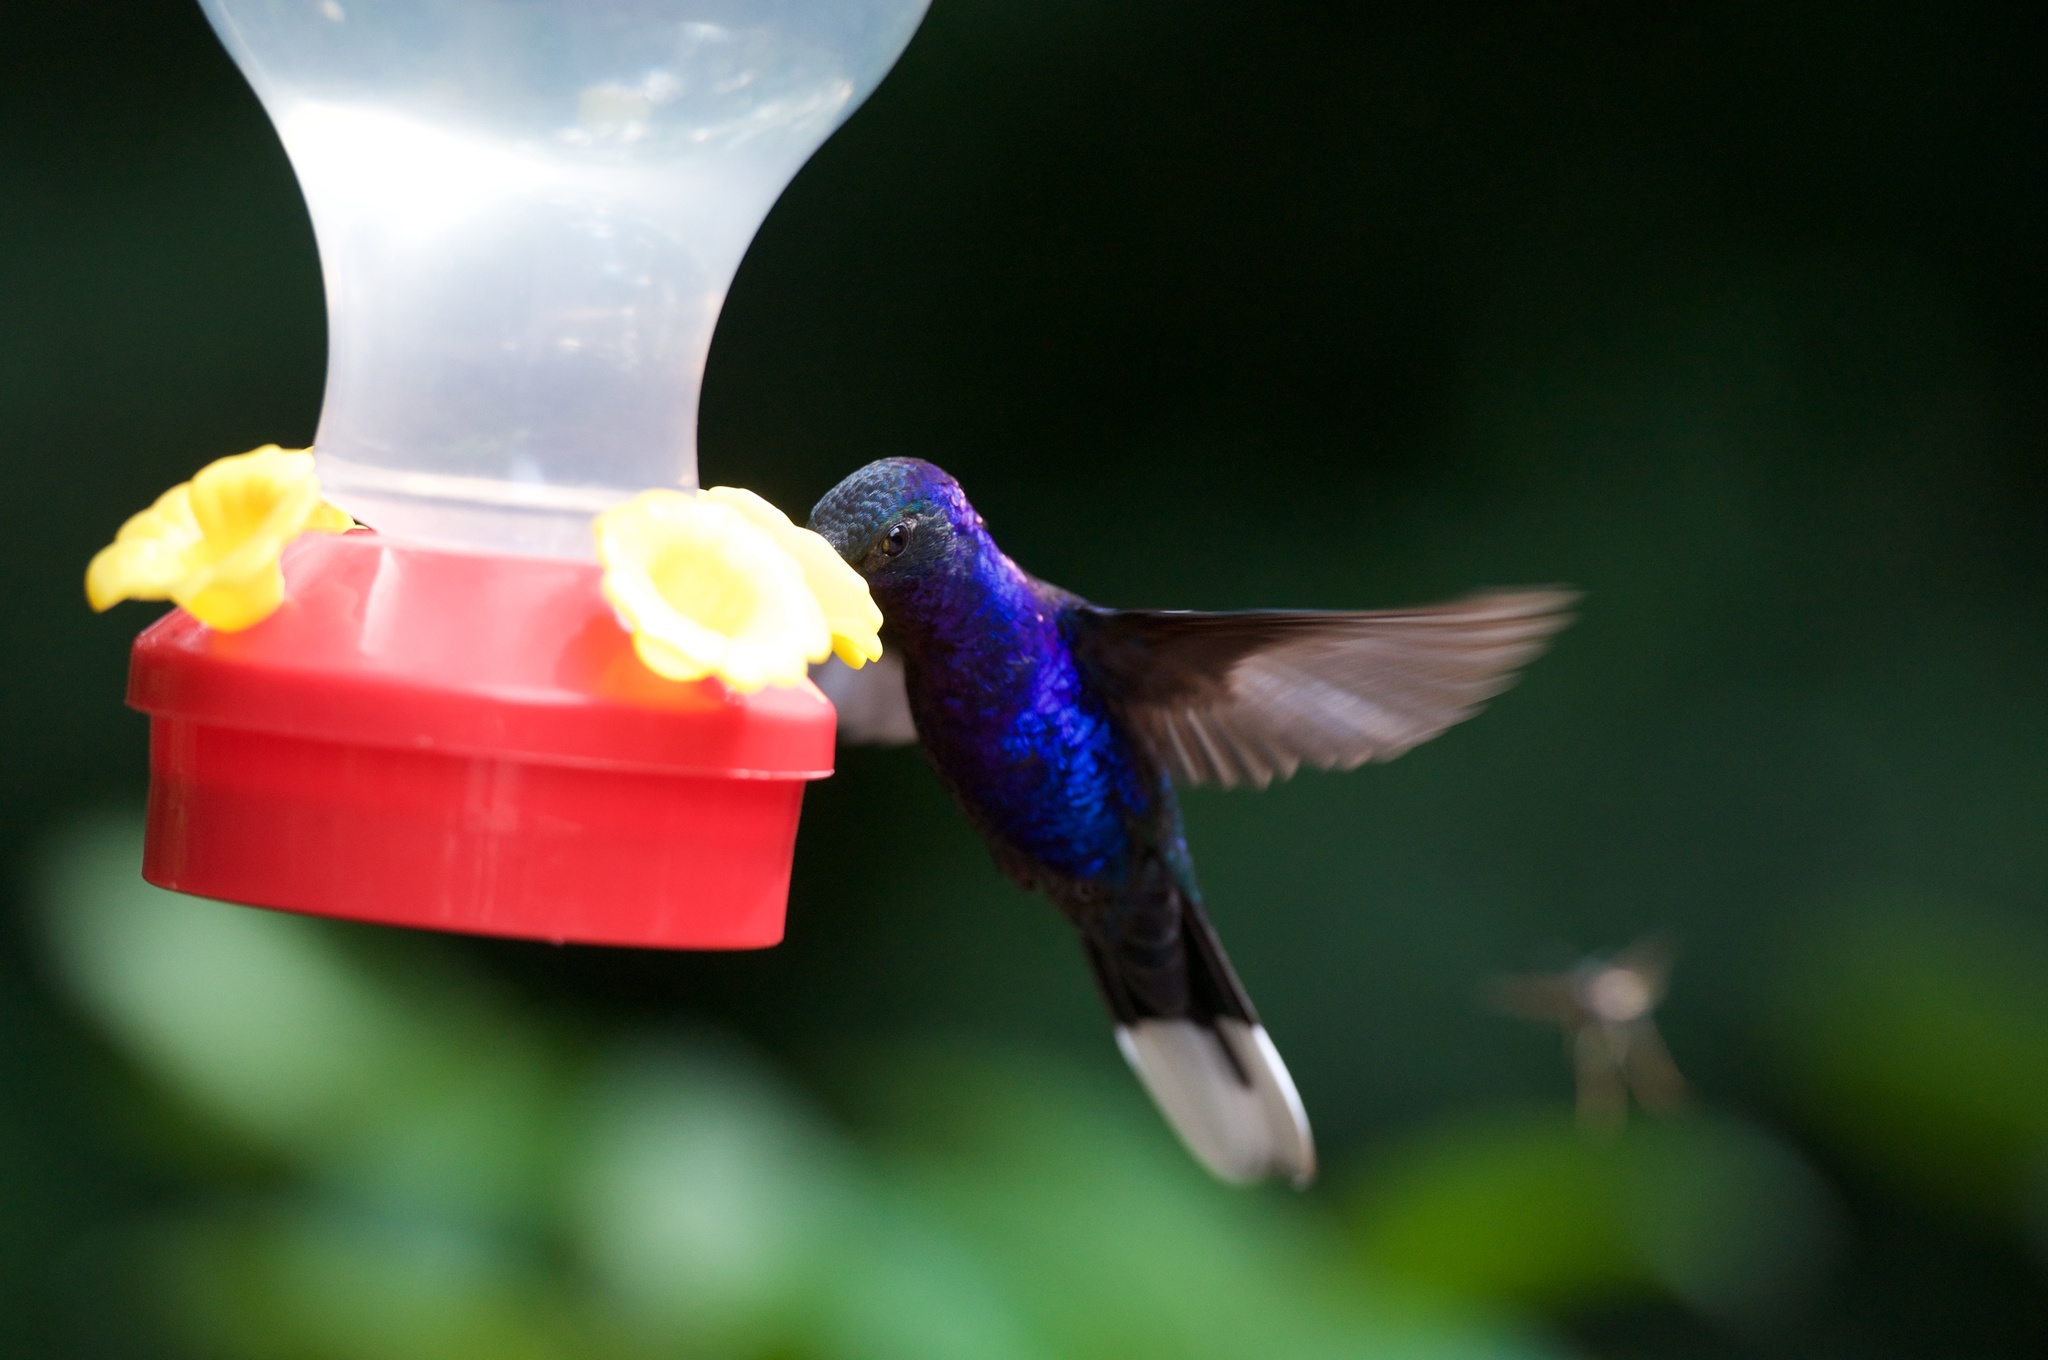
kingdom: Animalia
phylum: Chordata
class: Aves
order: Apodiformes
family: Trochilidae
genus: Campylopterus
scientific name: Campylopterus hemileucurus
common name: Violet sabrewing
